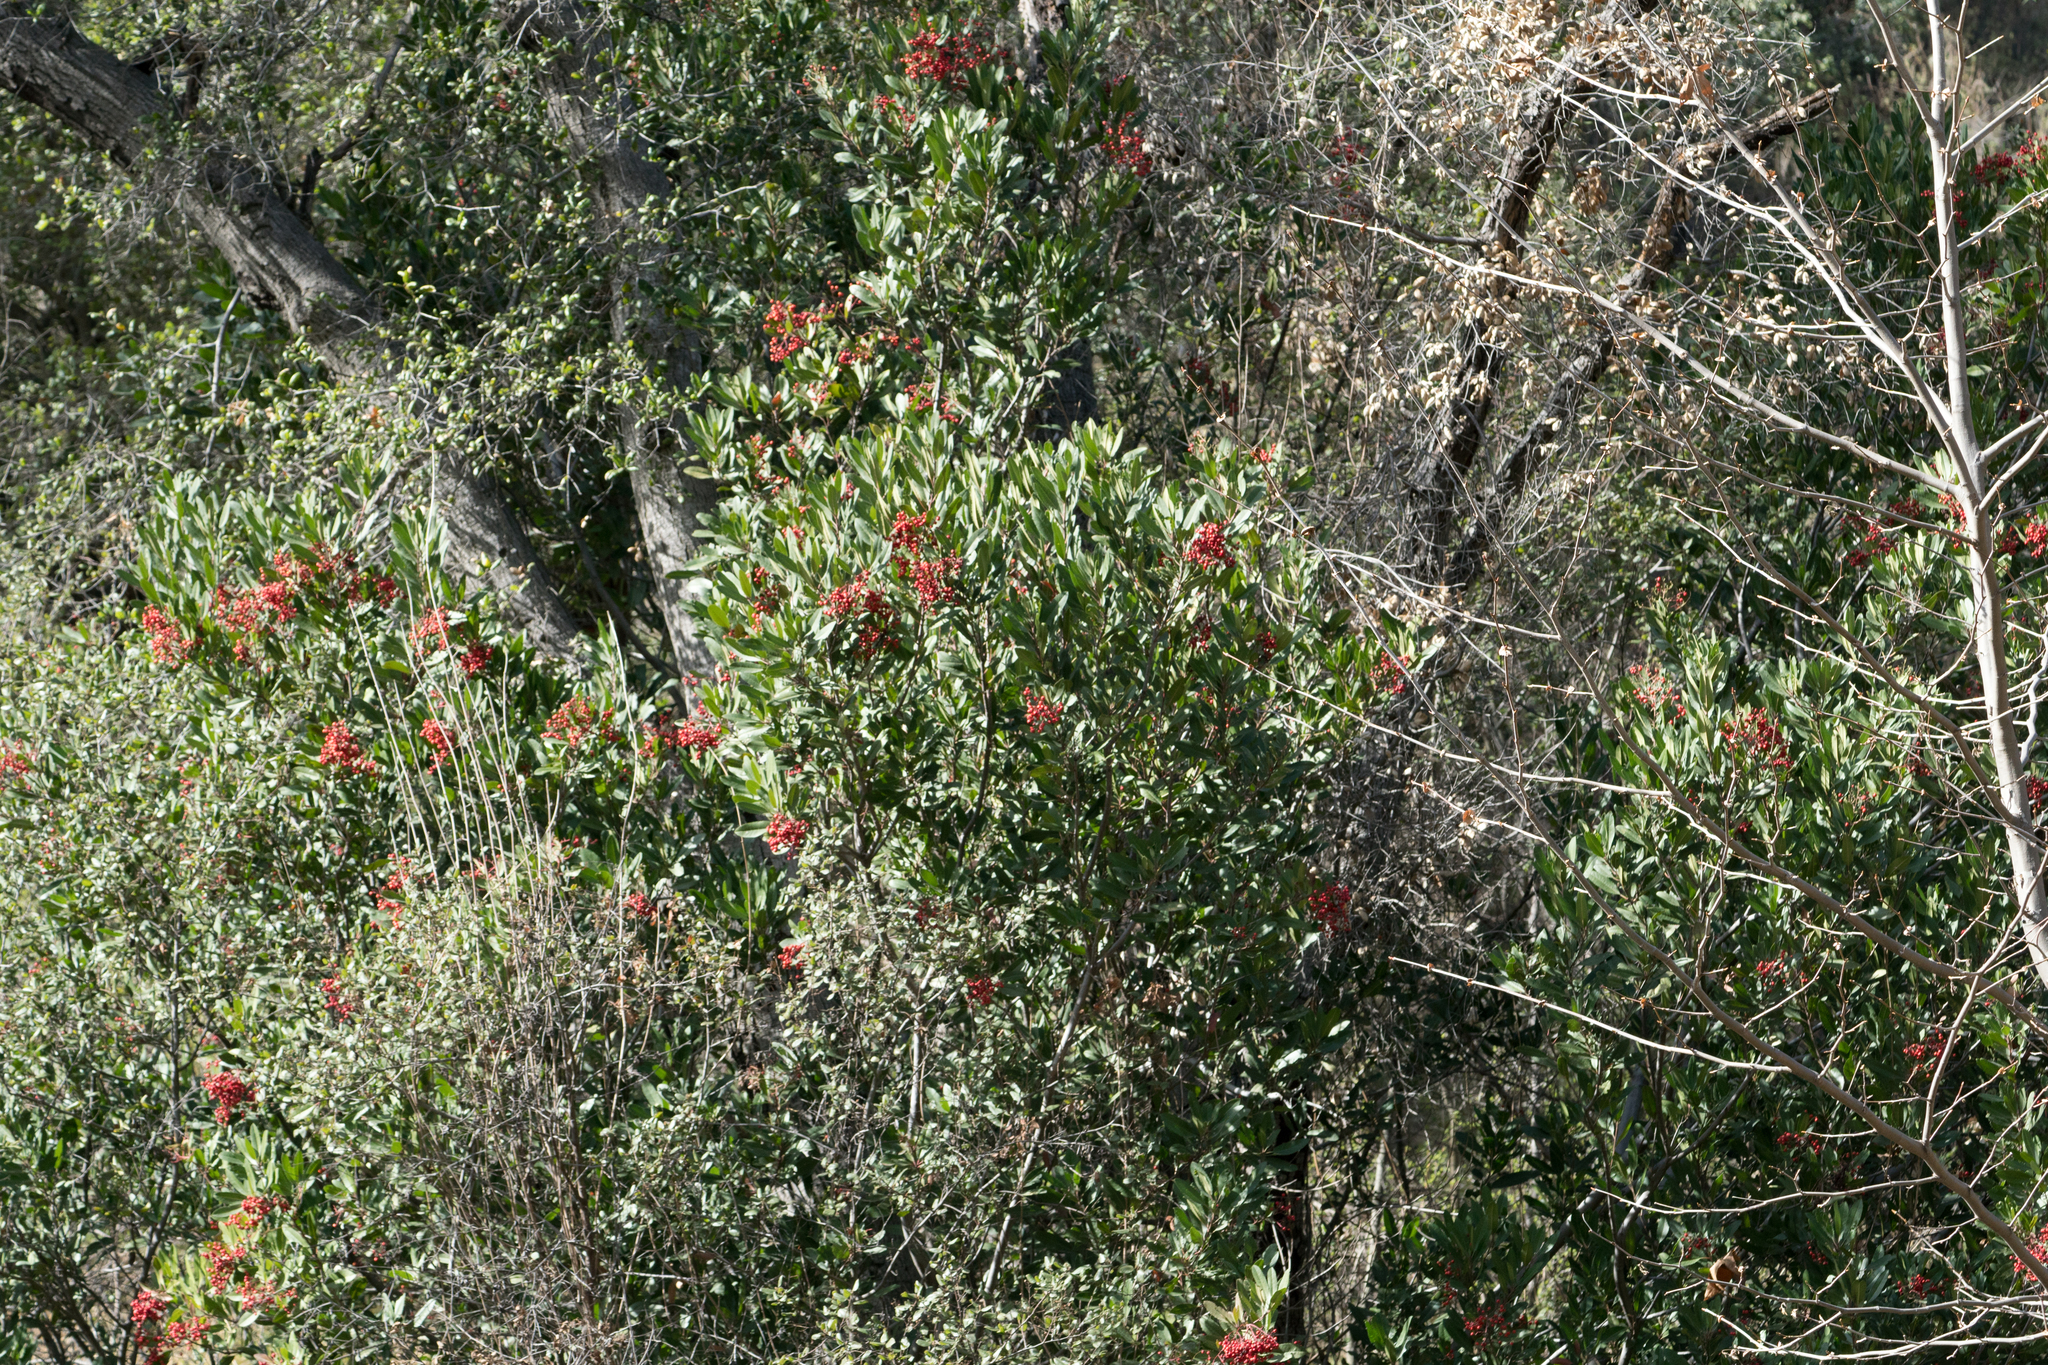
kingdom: Plantae
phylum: Tracheophyta
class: Magnoliopsida
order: Rosales
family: Rosaceae
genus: Heteromeles
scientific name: Heteromeles arbutifolia
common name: California-holly
